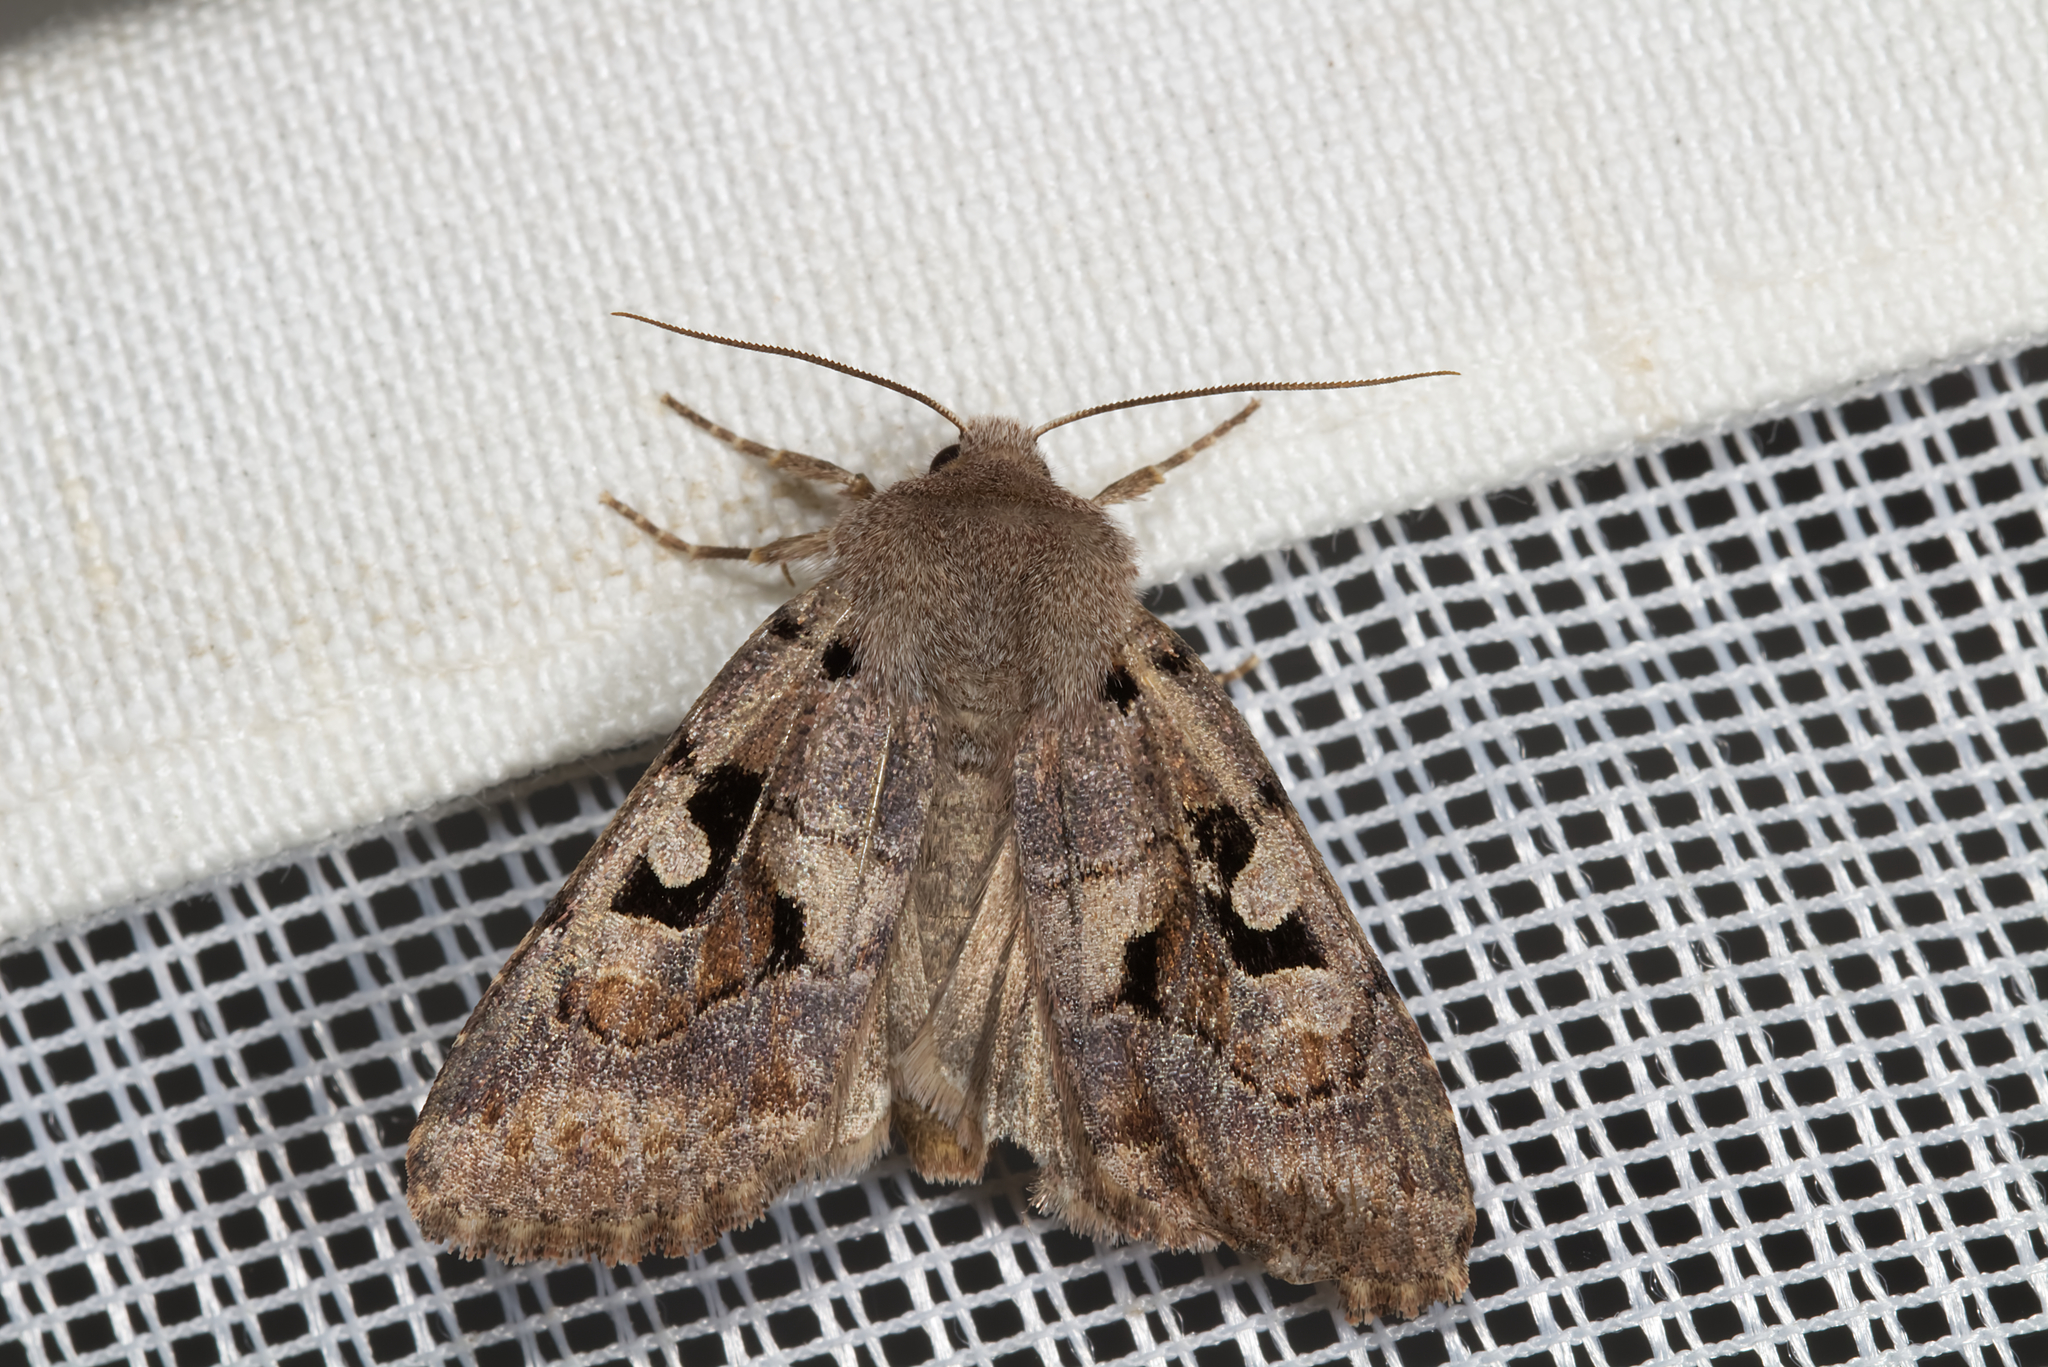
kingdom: Animalia
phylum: Arthropoda
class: Insecta
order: Lepidoptera
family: Noctuidae
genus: Orthosia
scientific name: Orthosia gothica
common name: Hebrew character
